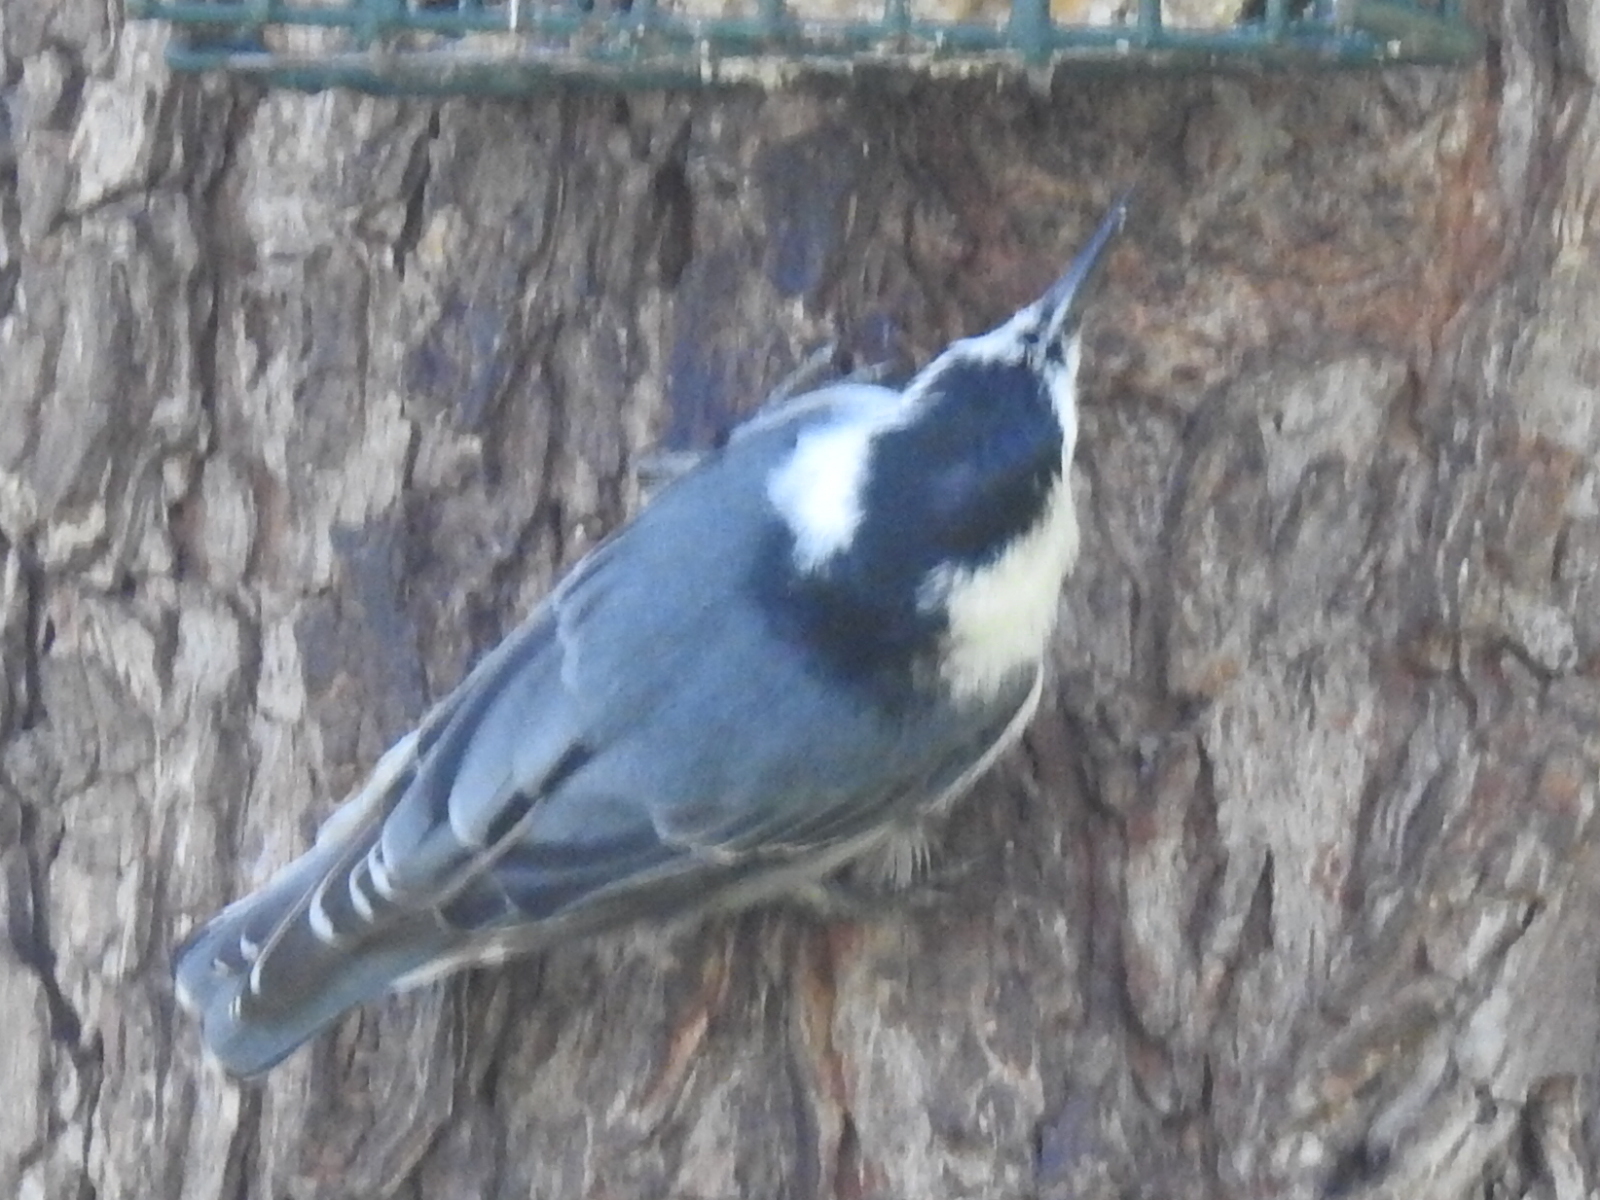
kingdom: Animalia
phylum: Chordata
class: Aves
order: Passeriformes
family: Sittidae
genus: Sitta
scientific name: Sitta carolinensis
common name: White-breasted nuthatch
